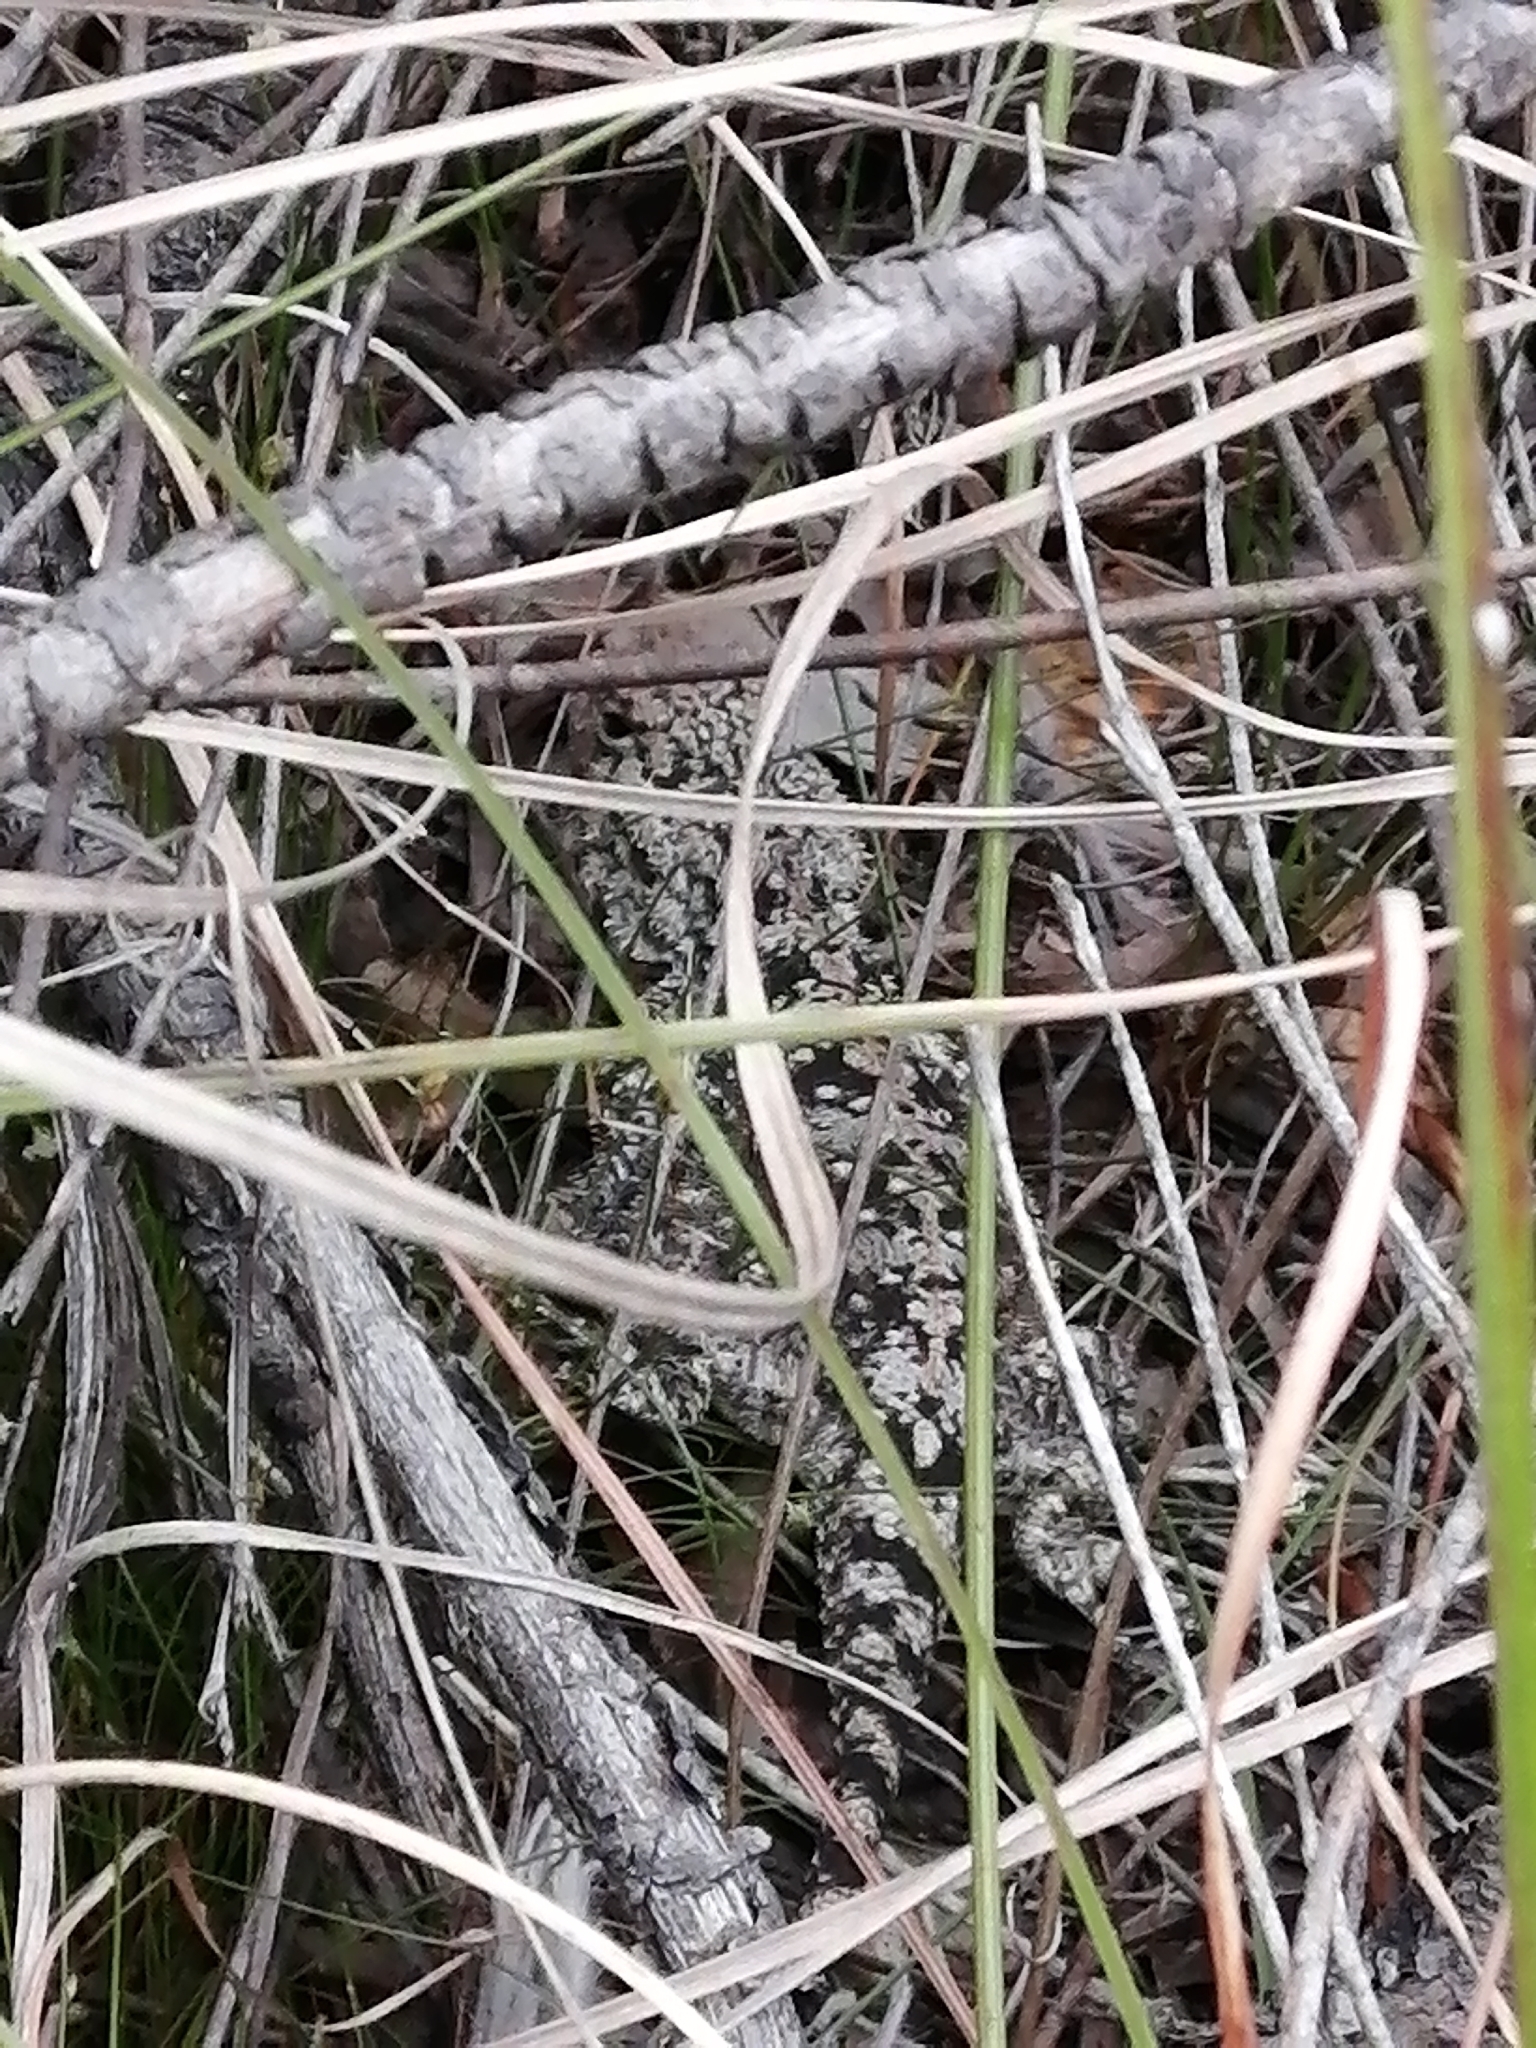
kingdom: Animalia
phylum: Chordata
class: Squamata
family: Agamidae
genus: Agama
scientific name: Agama atra
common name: Southern african rock agama
